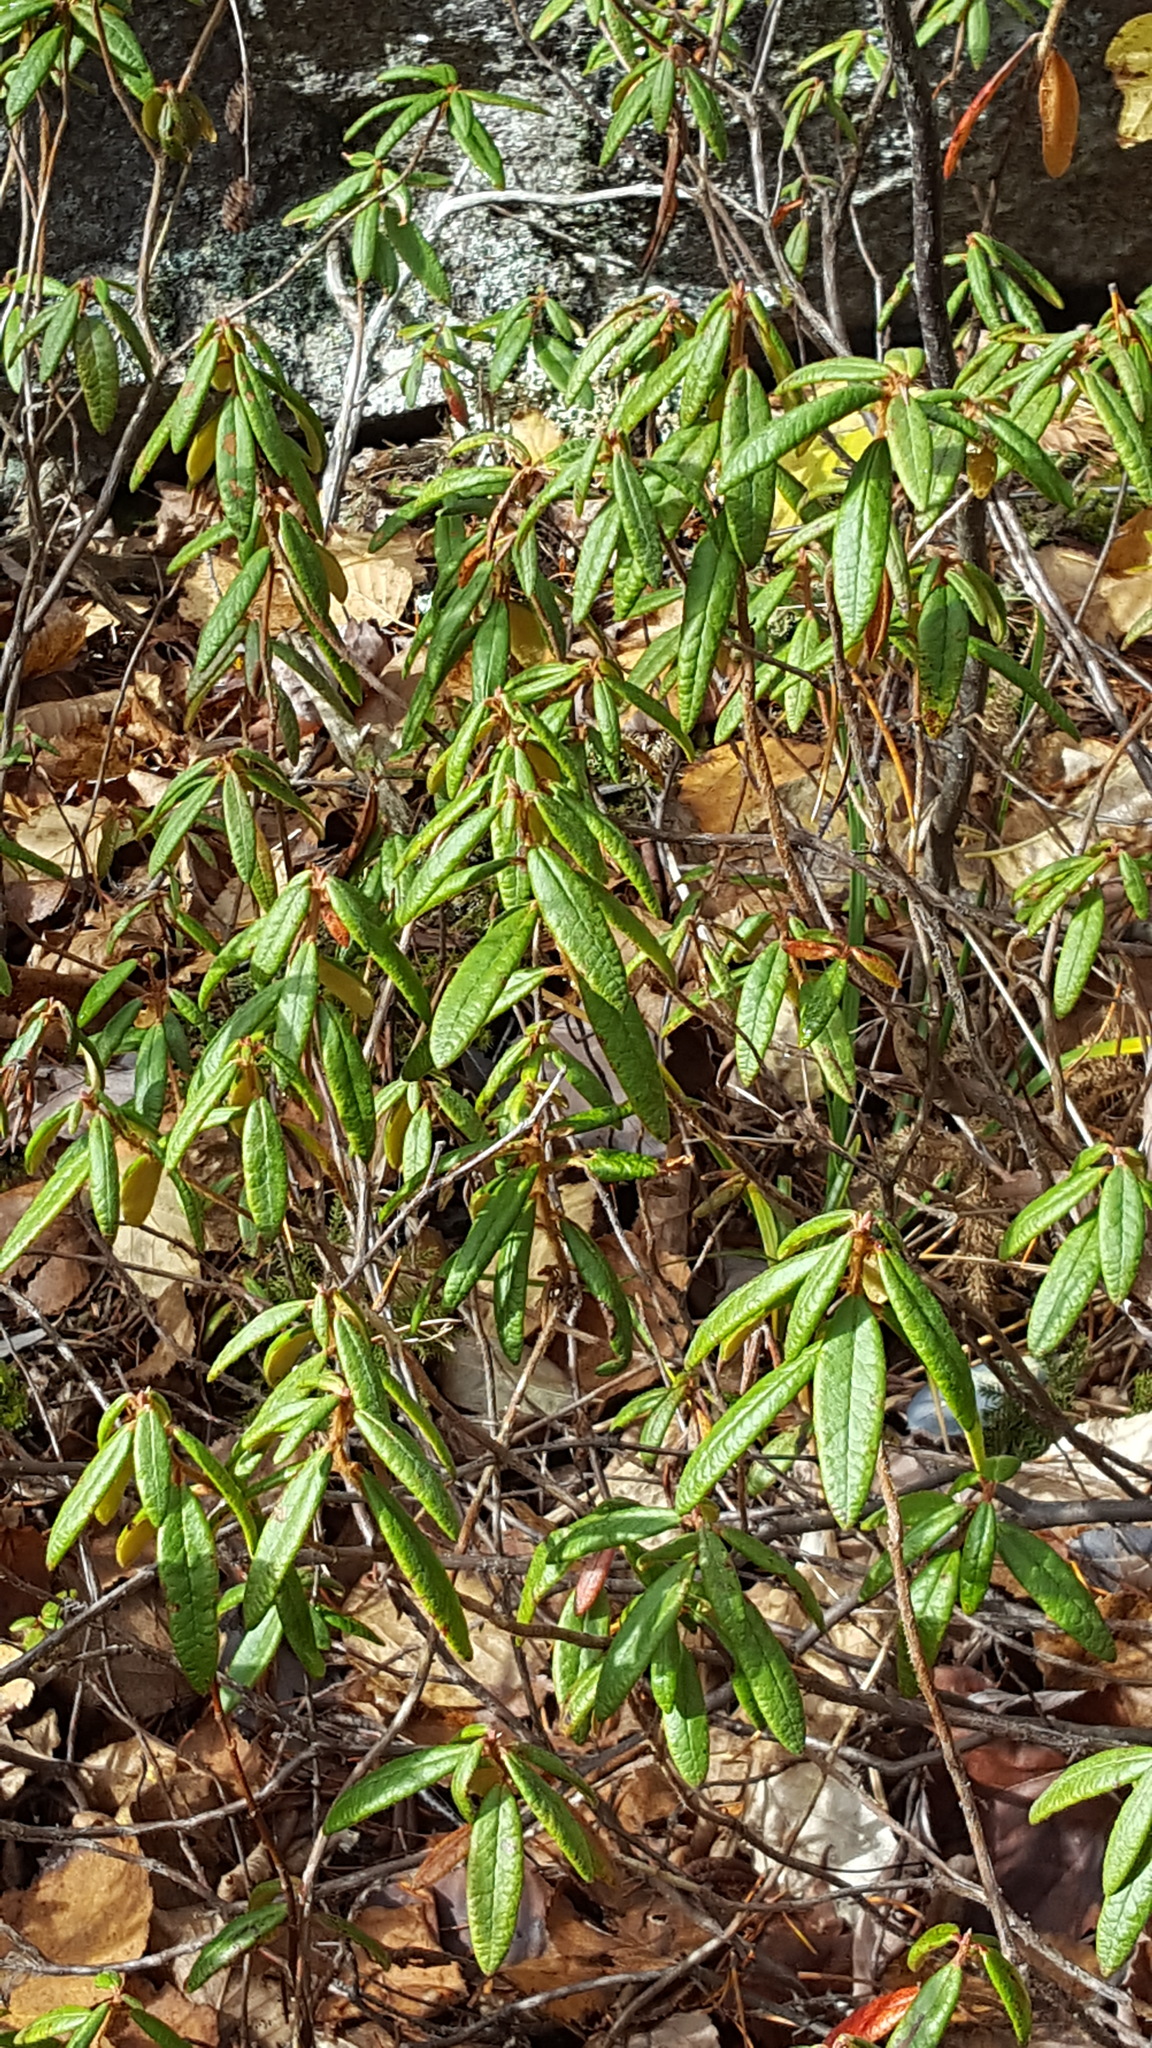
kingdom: Plantae
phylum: Tracheophyta
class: Magnoliopsida
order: Ericales
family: Ericaceae
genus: Rhododendron
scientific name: Rhododendron groenlandicum
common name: Bog labrador tea
